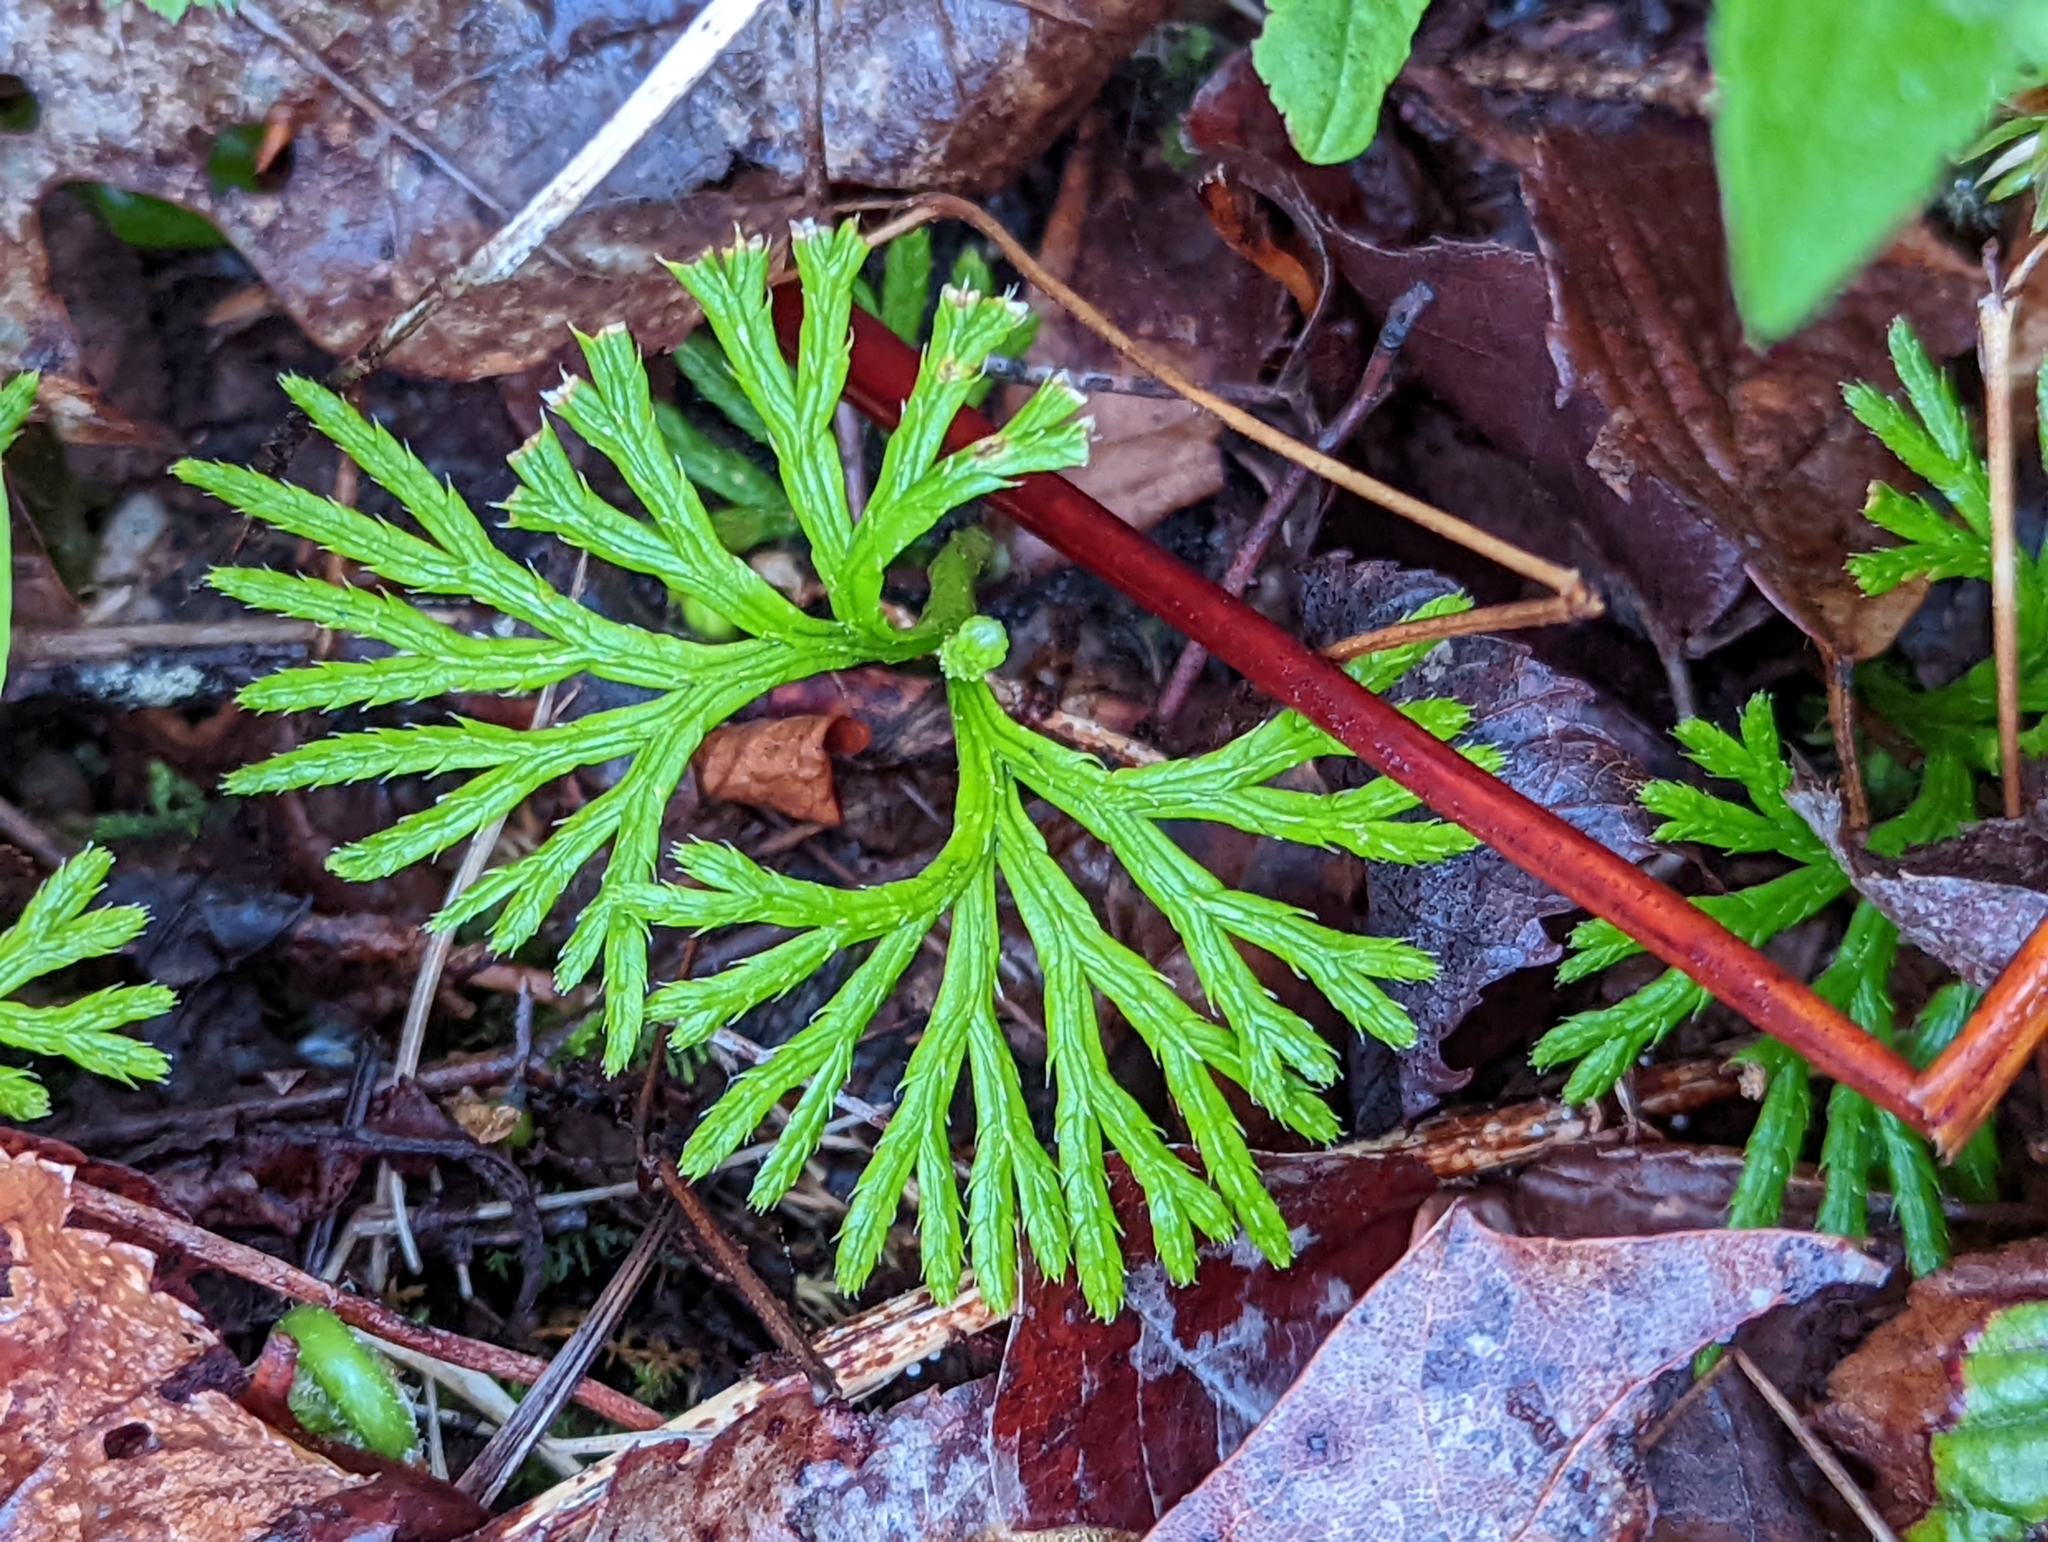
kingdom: Plantae
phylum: Tracheophyta
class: Lycopodiopsida
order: Lycopodiales
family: Lycopodiaceae
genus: Diphasiastrum
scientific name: Diphasiastrum digitatum
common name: Southern running-pine
